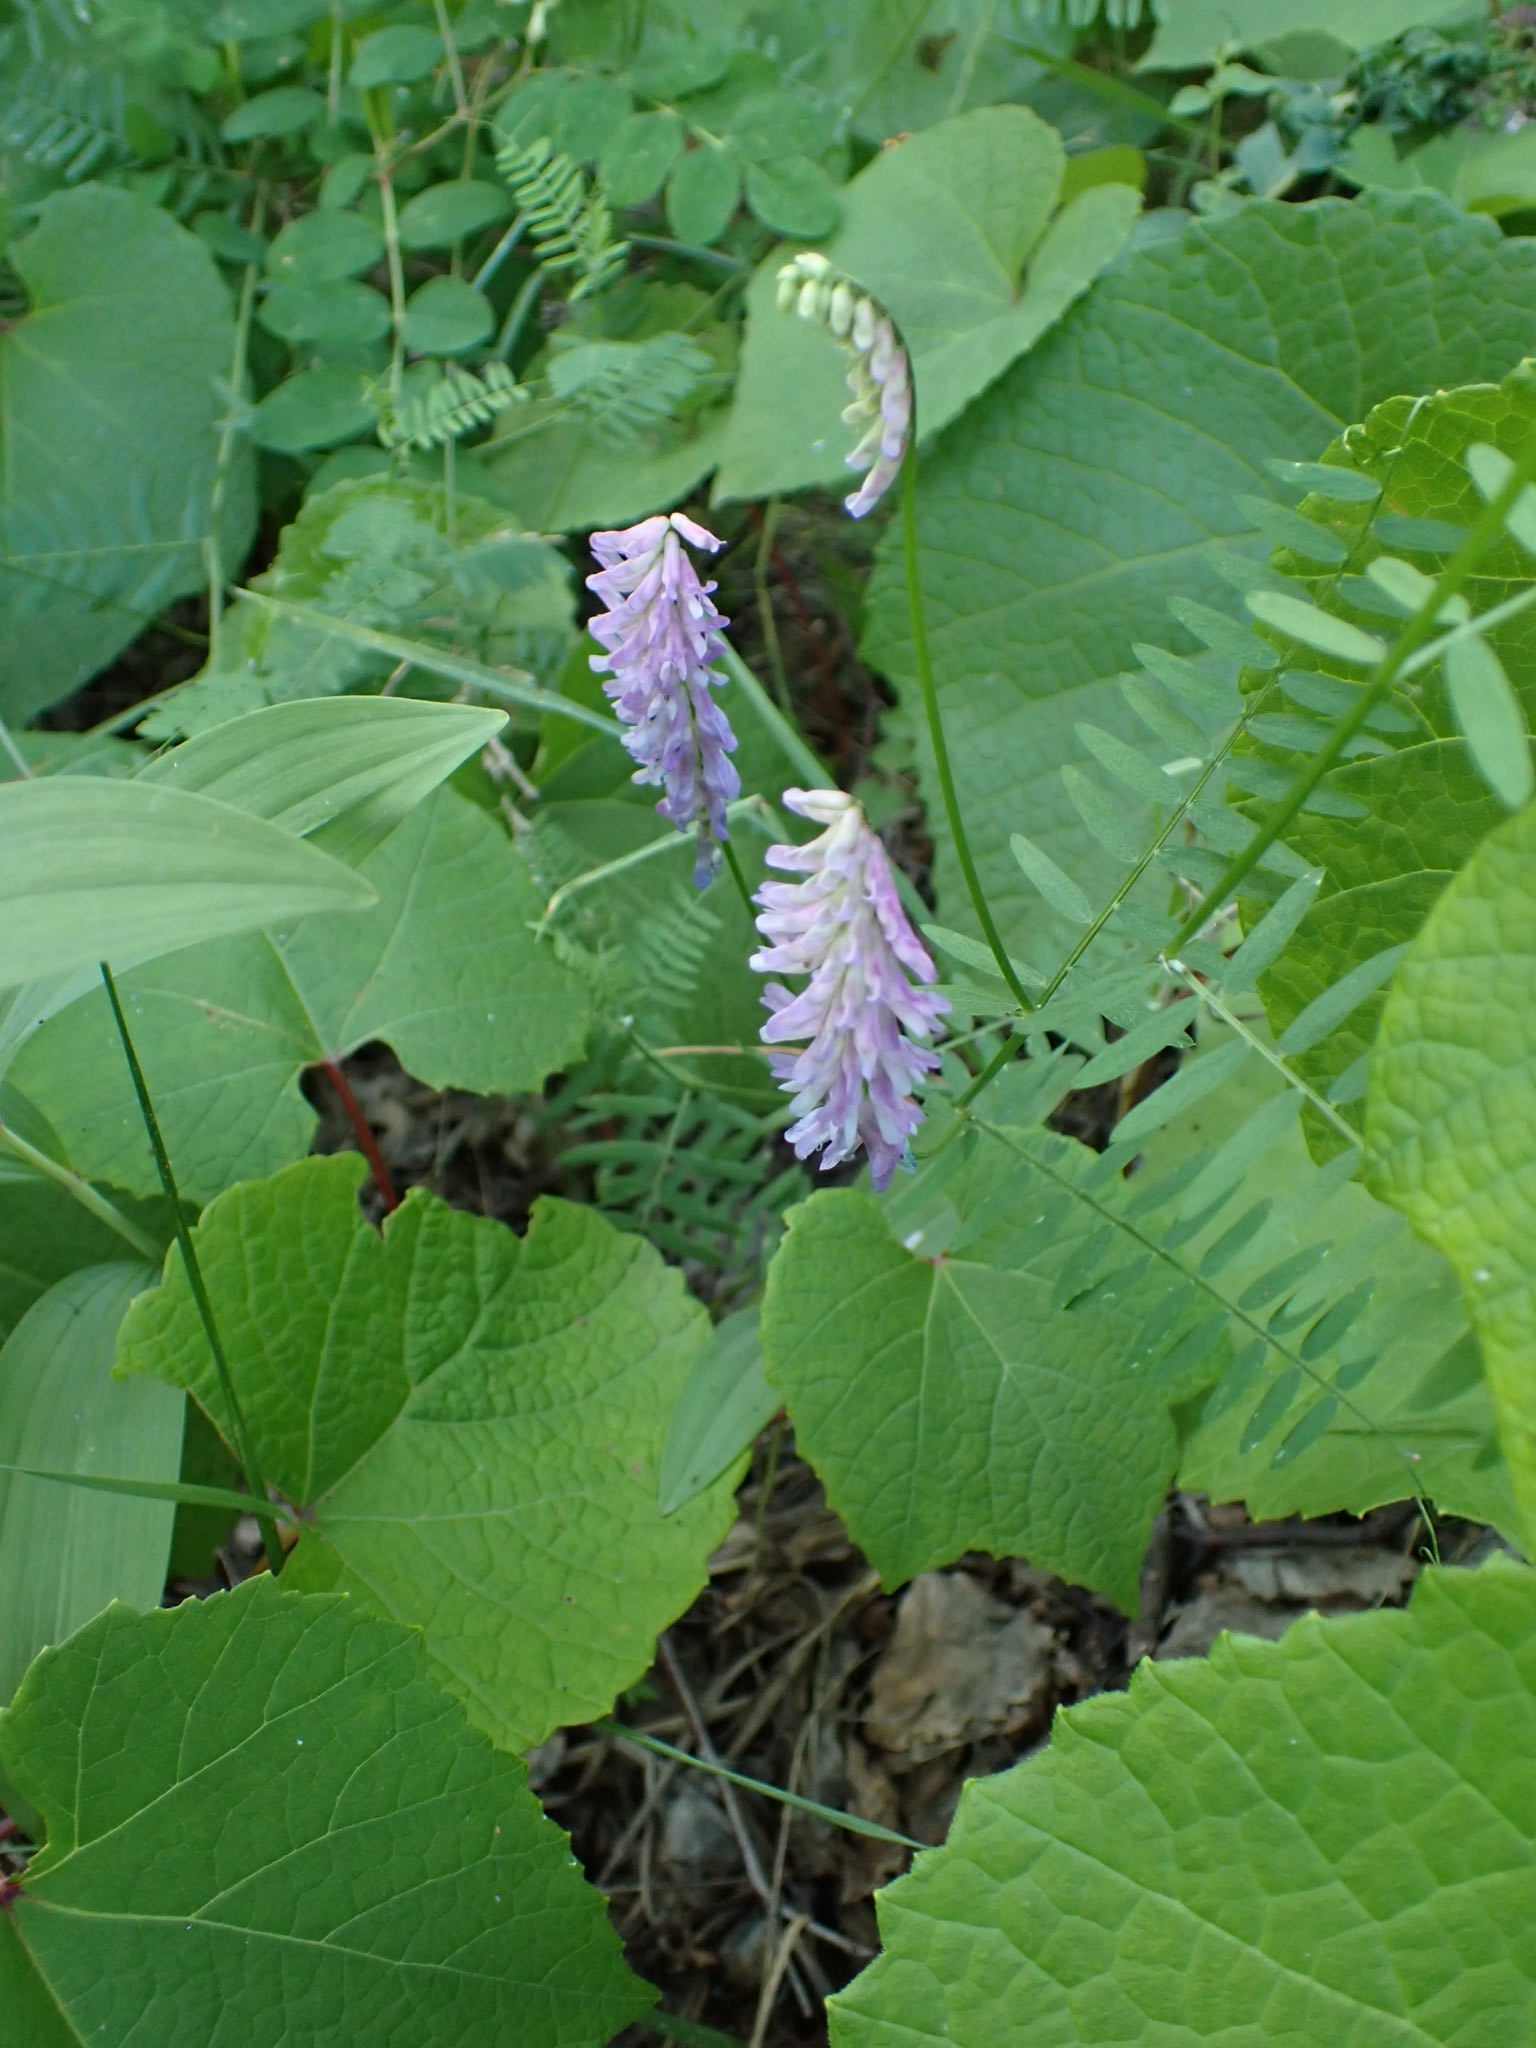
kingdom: Plantae
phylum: Tracheophyta
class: Magnoliopsida
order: Fabales
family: Fabaceae
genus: Vicia
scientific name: Vicia cracca
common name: Bird vetch
